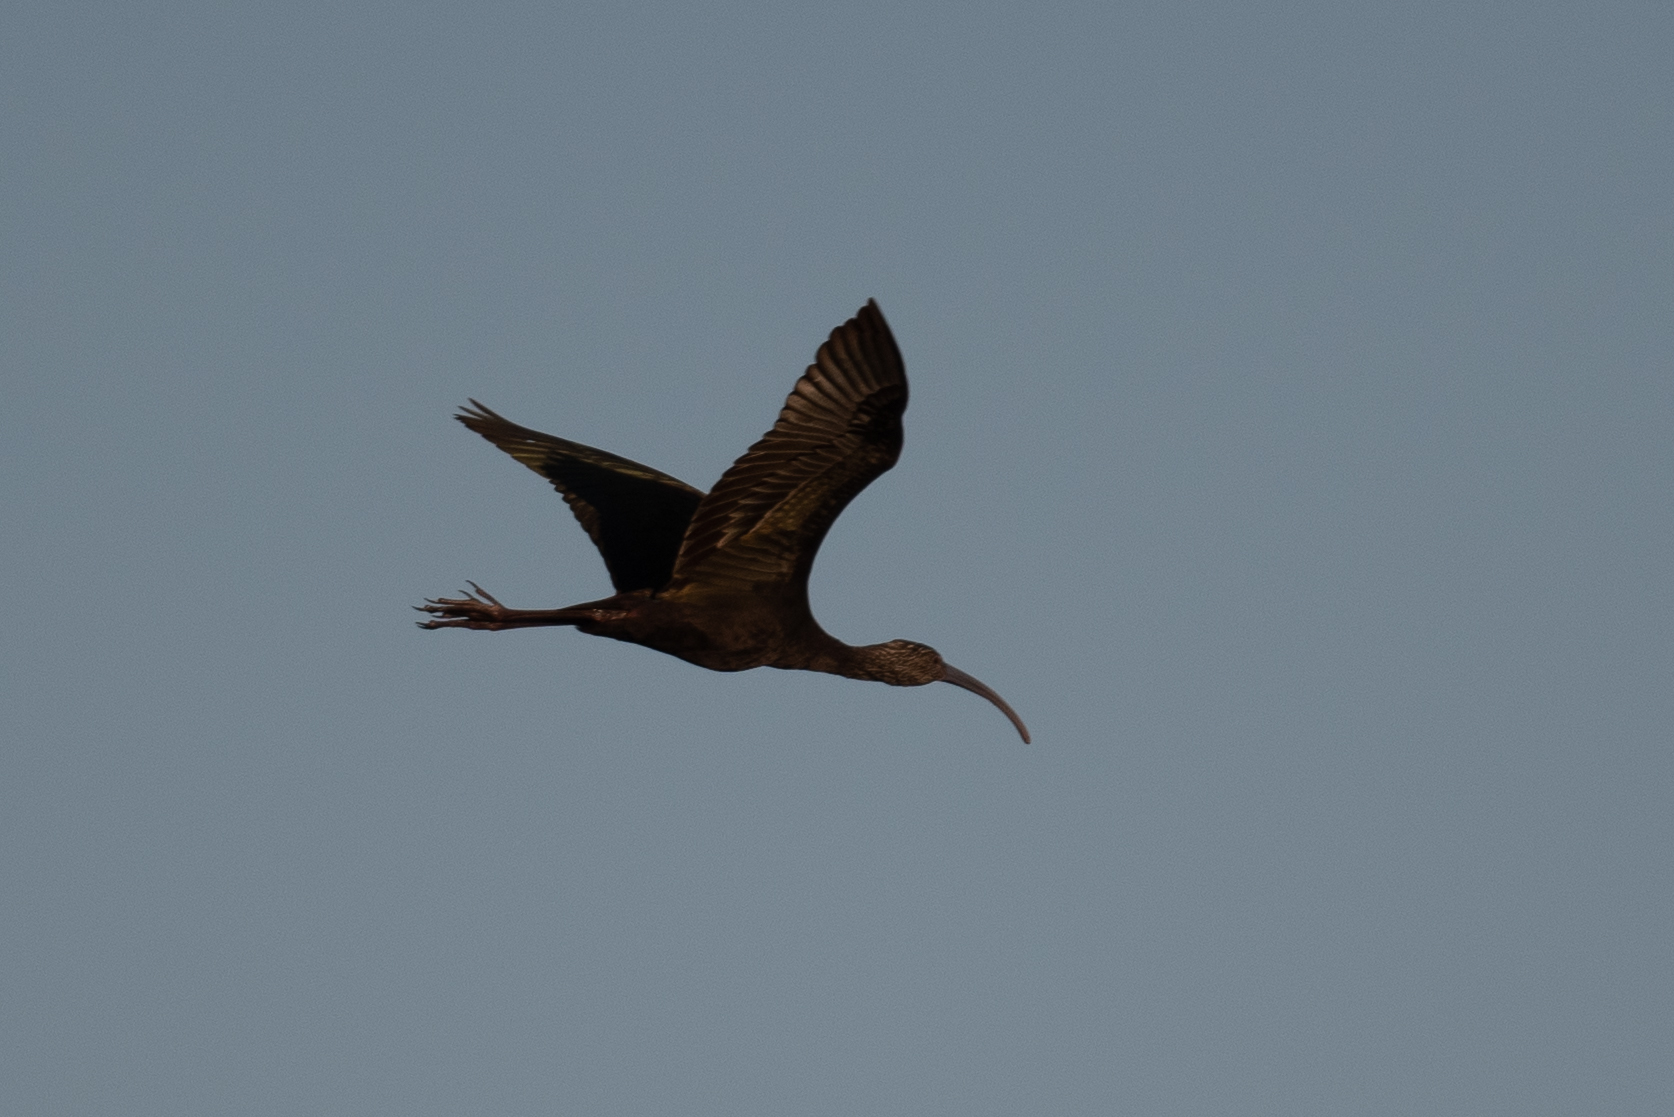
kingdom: Animalia
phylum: Chordata
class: Aves
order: Pelecaniformes
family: Threskiornithidae
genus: Plegadis
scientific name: Plegadis chihi
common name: White-faced ibis
